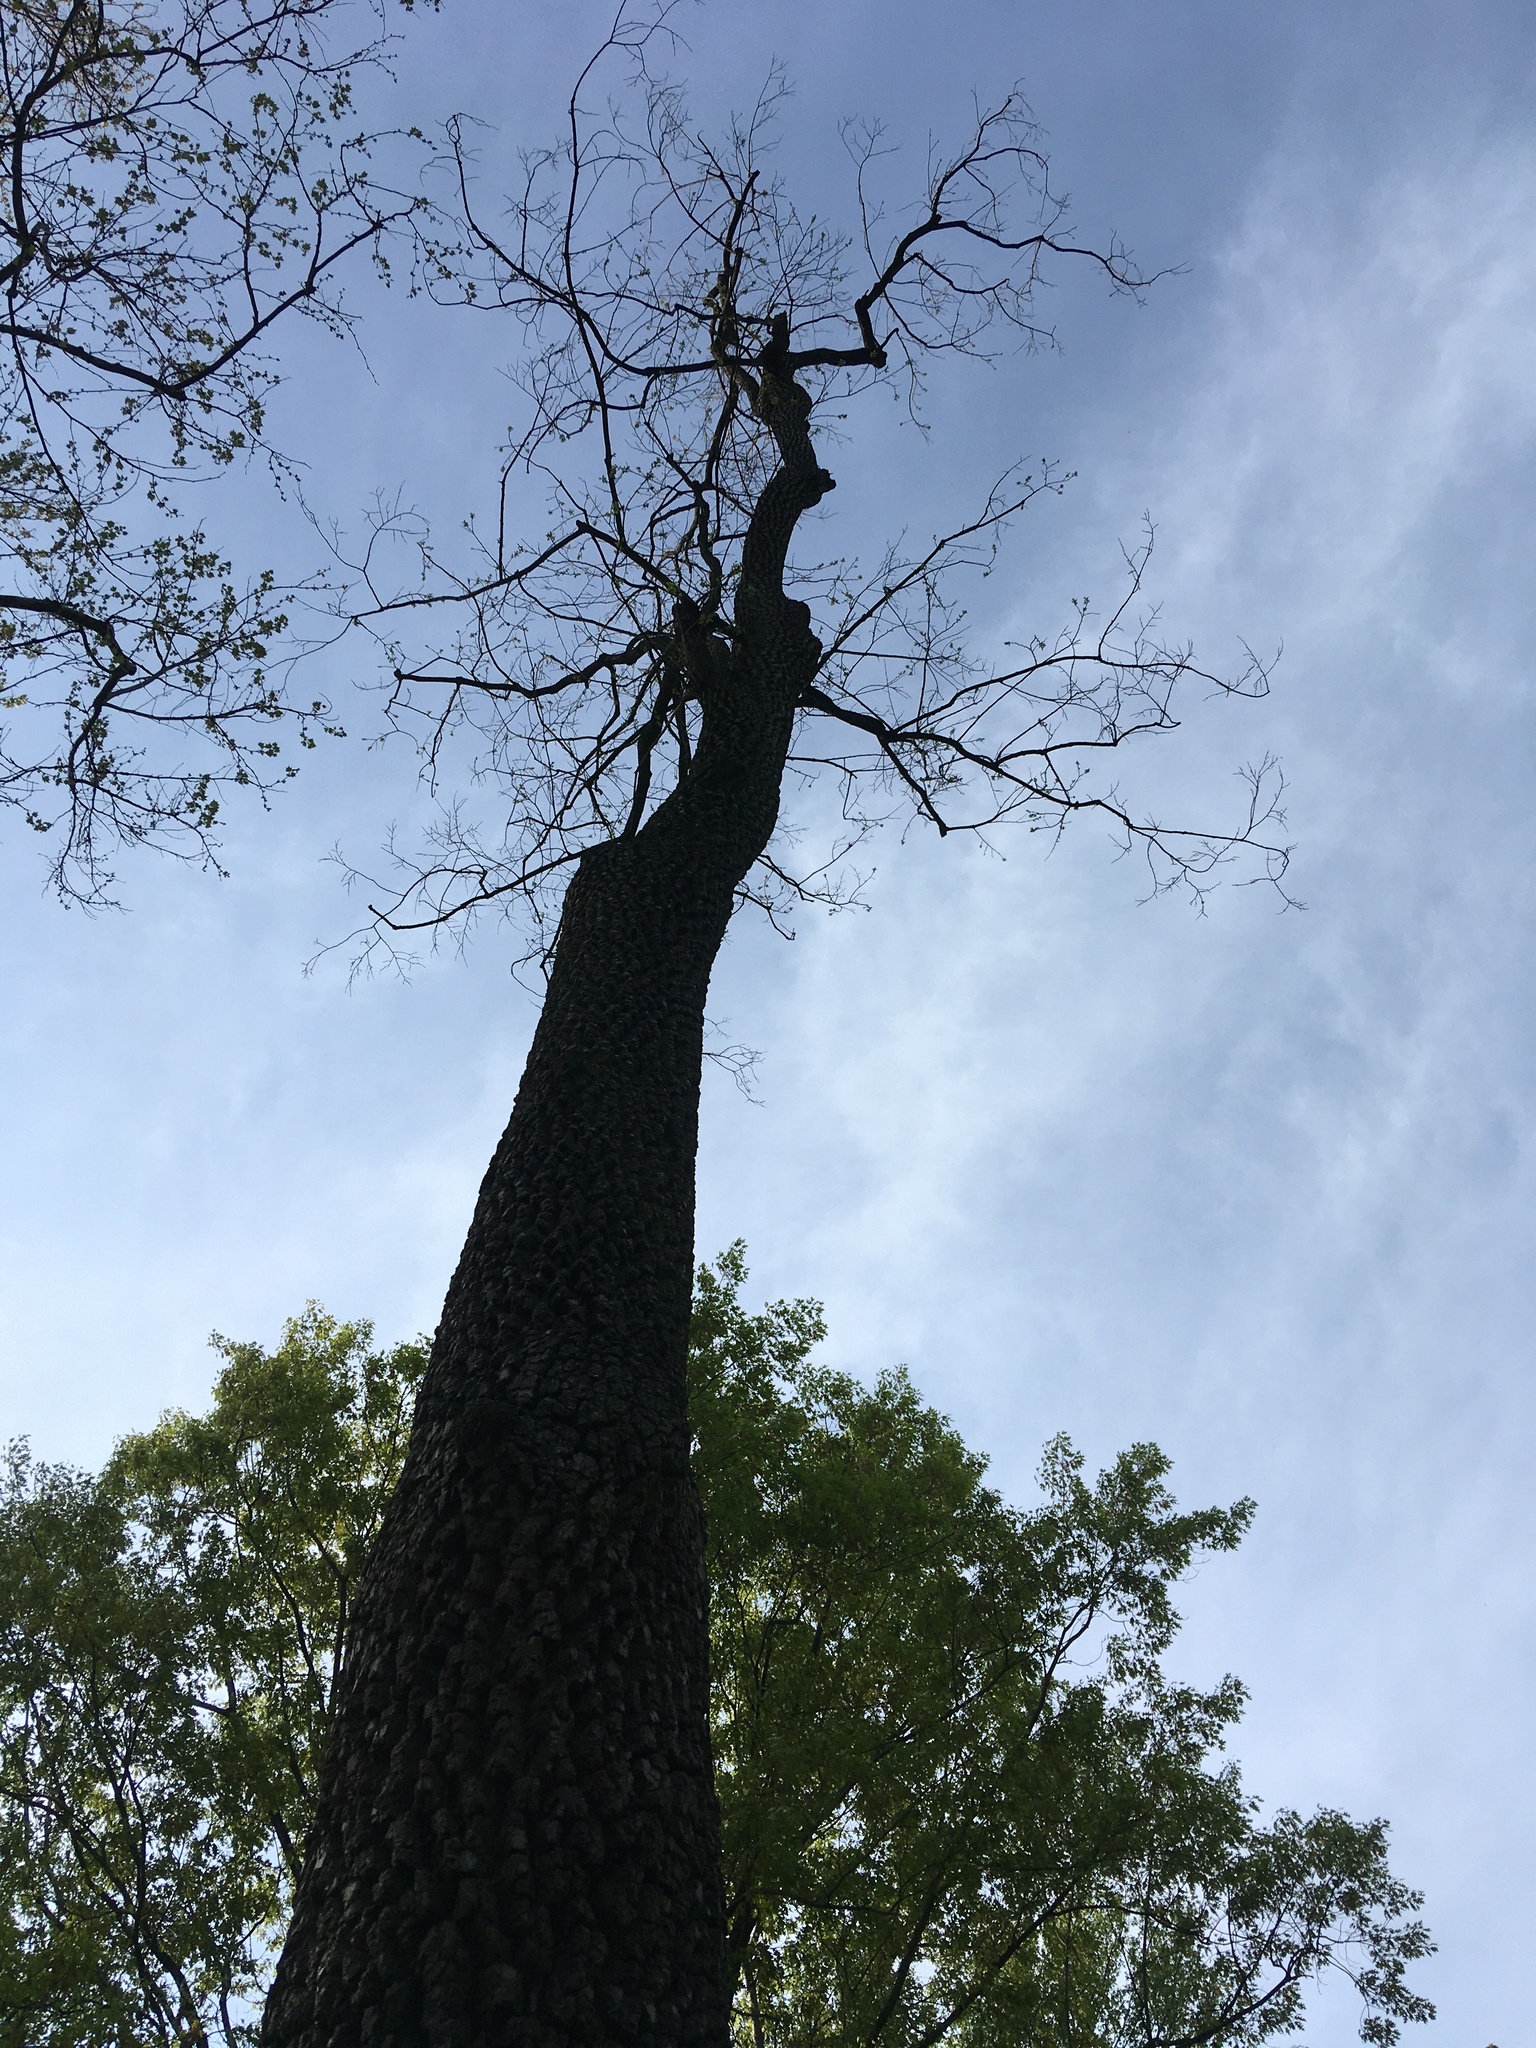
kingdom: Plantae
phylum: Tracheophyta
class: Magnoliopsida
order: Ericales
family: Ebenaceae
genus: Diospyros
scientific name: Diospyros virginiana
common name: Persimmon
